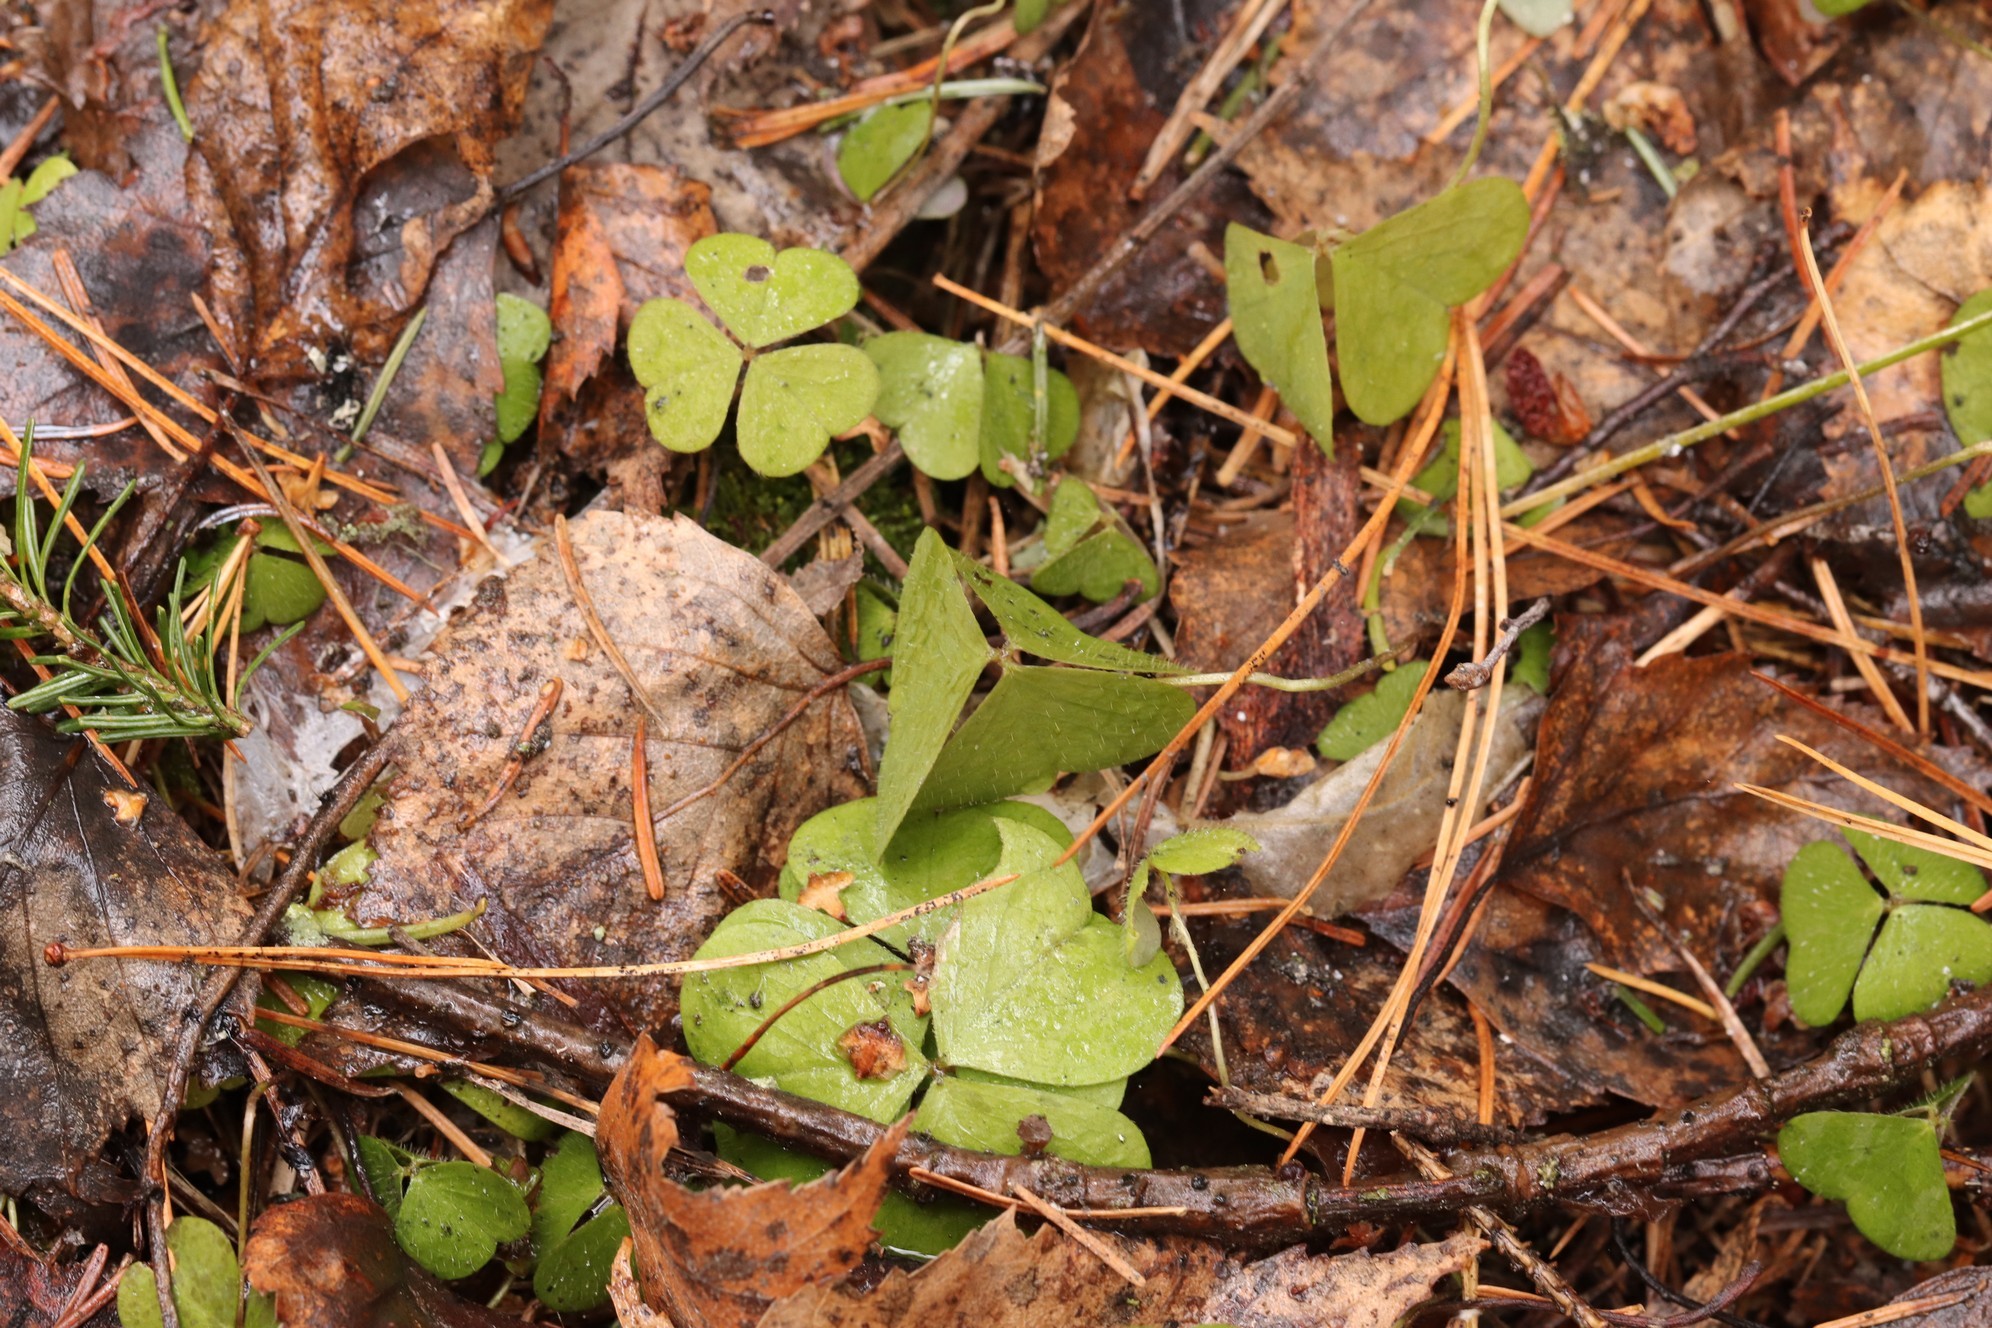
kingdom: Plantae
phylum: Tracheophyta
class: Magnoliopsida
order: Oxalidales
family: Oxalidaceae
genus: Oxalis
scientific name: Oxalis acetosella
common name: Wood-sorrel
